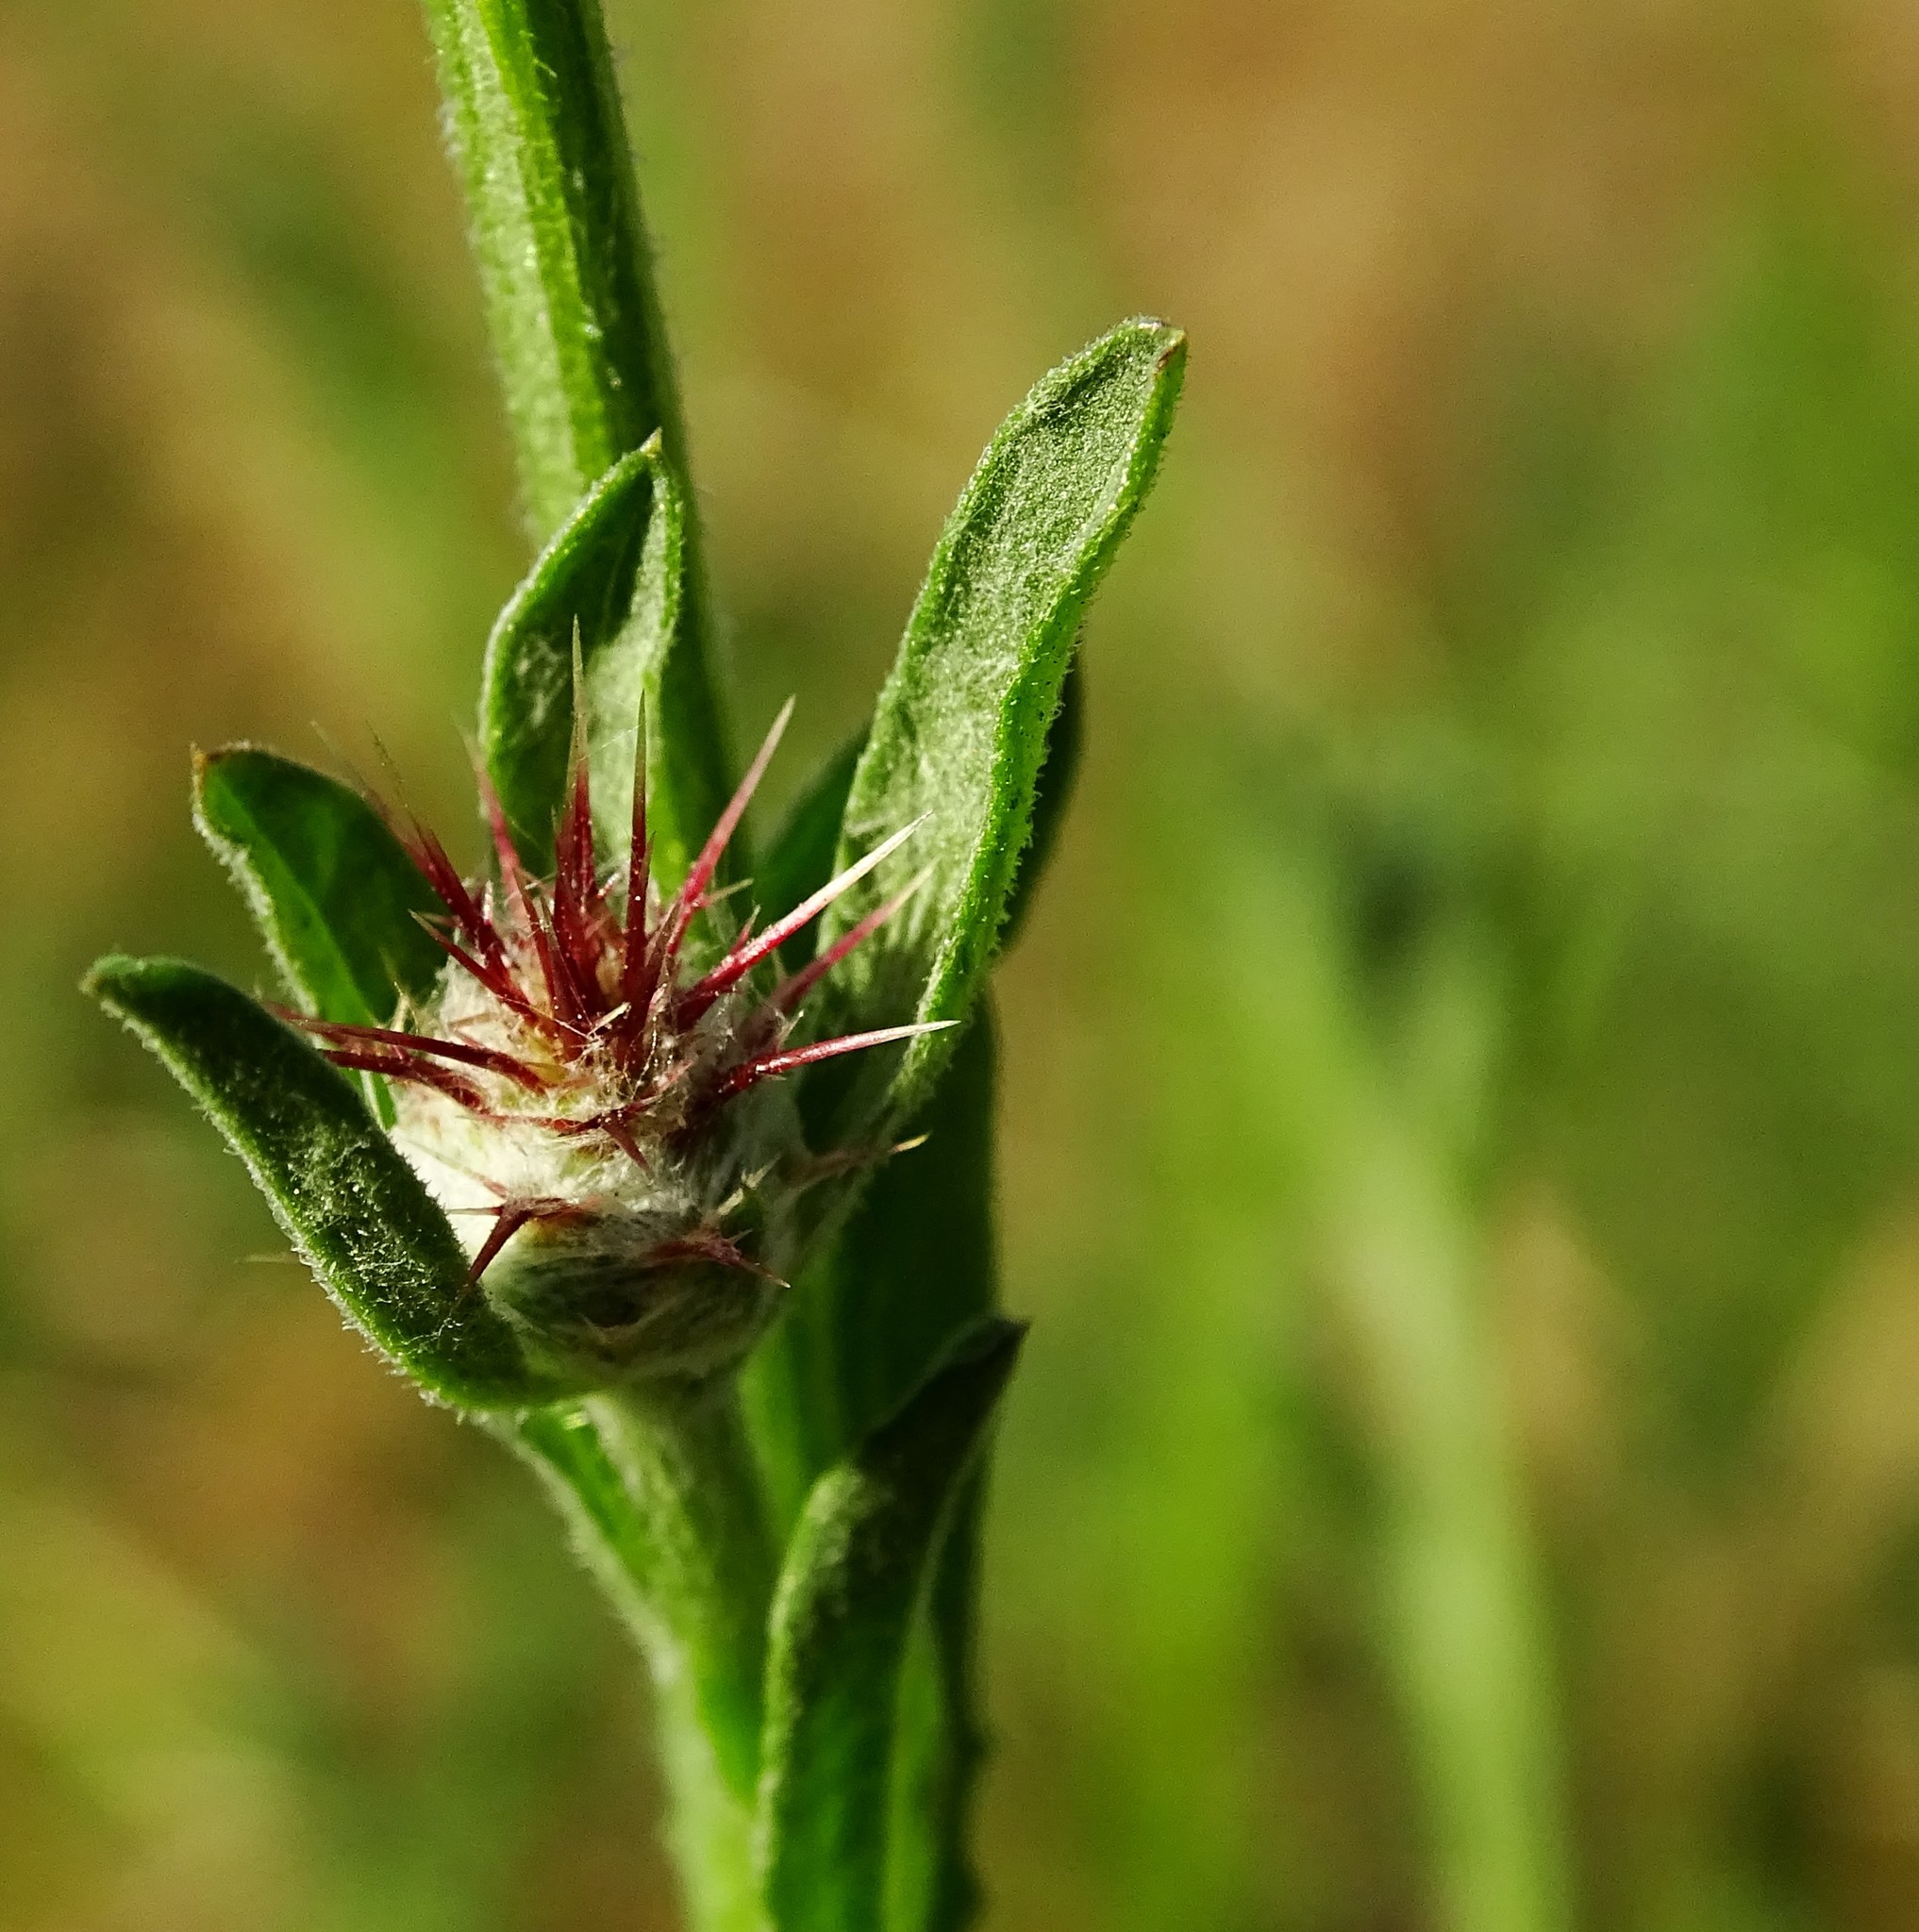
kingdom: Plantae
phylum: Tracheophyta
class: Magnoliopsida
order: Asterales
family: Asteraceae
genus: Centaurea
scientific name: Centaurea melitensis
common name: Maltese star-thistle
